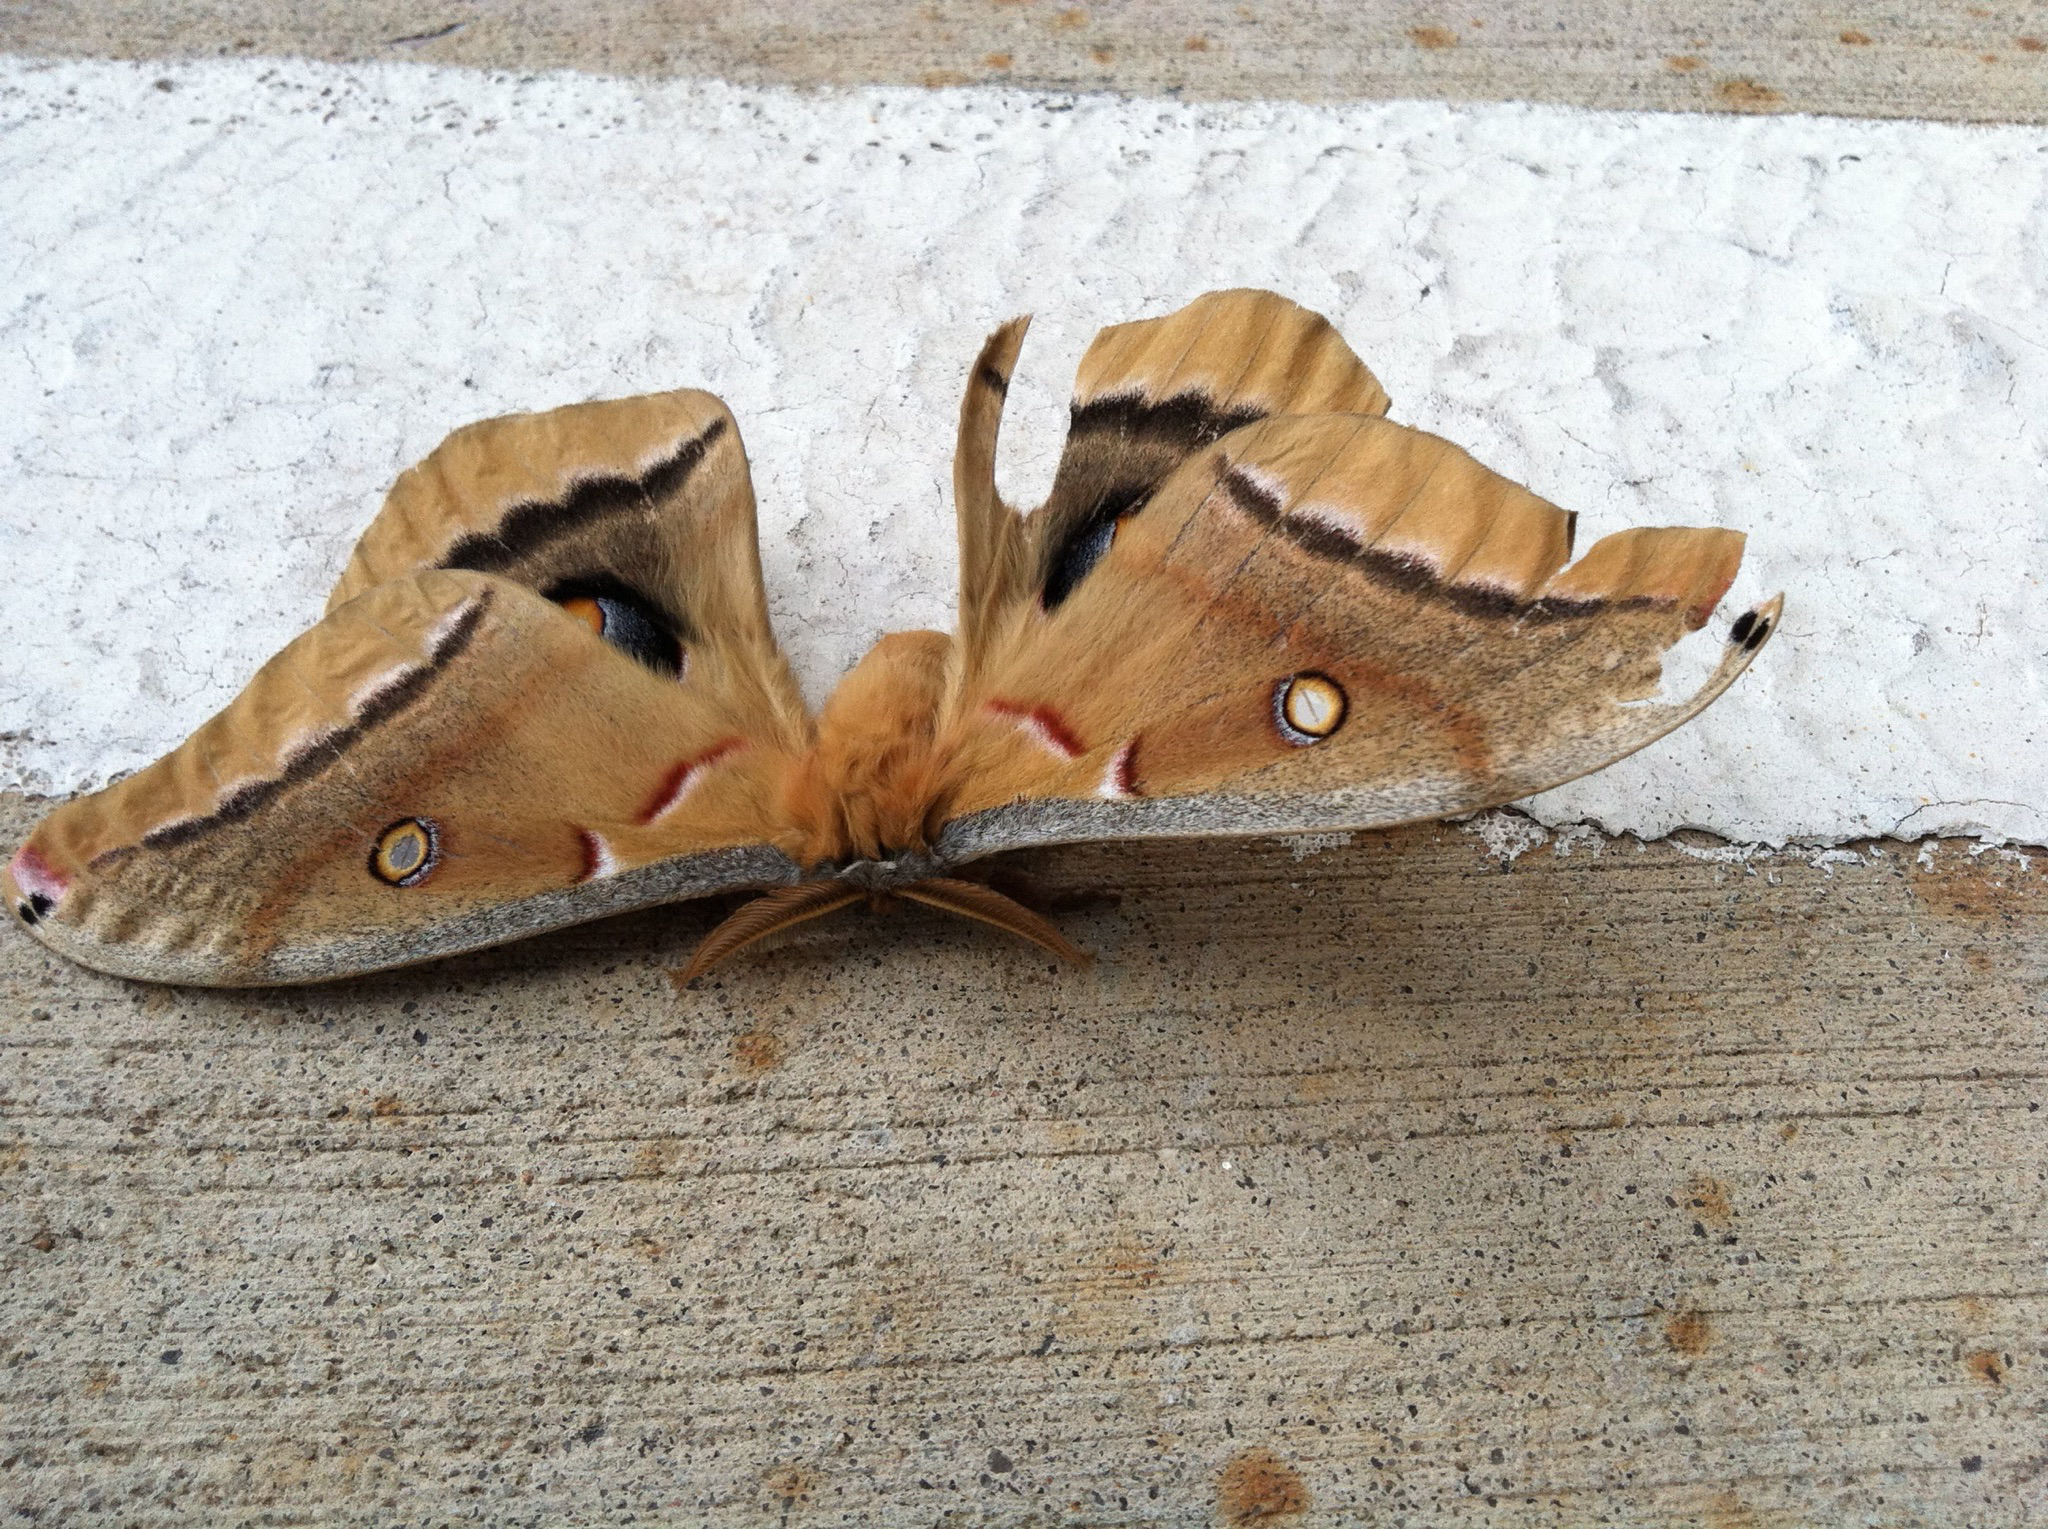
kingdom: Animalia
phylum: Arthropoda
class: Insecta
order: Lepidoptera
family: Saturniidae
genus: Antheraea
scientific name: Antheraea polyphemus
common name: Polyphemus moth
